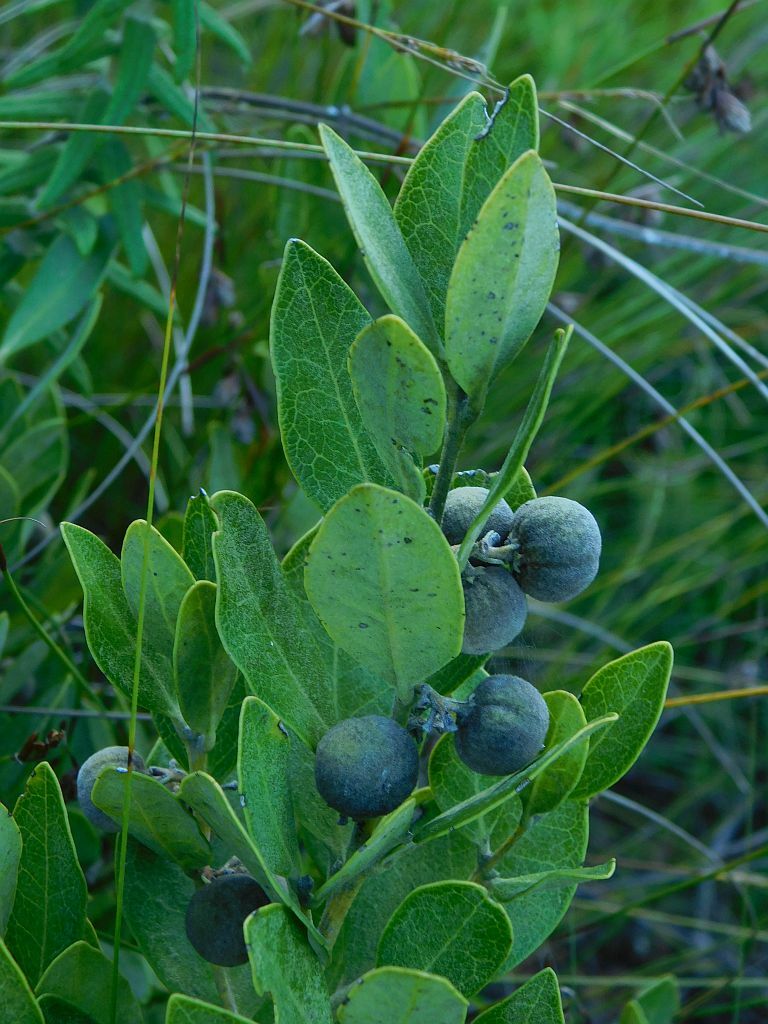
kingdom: Plantae
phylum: Tracheophyta
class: Magnoliopsida
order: Ericales
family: Ebenaceae
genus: Euclea
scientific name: Euclea polyandra
